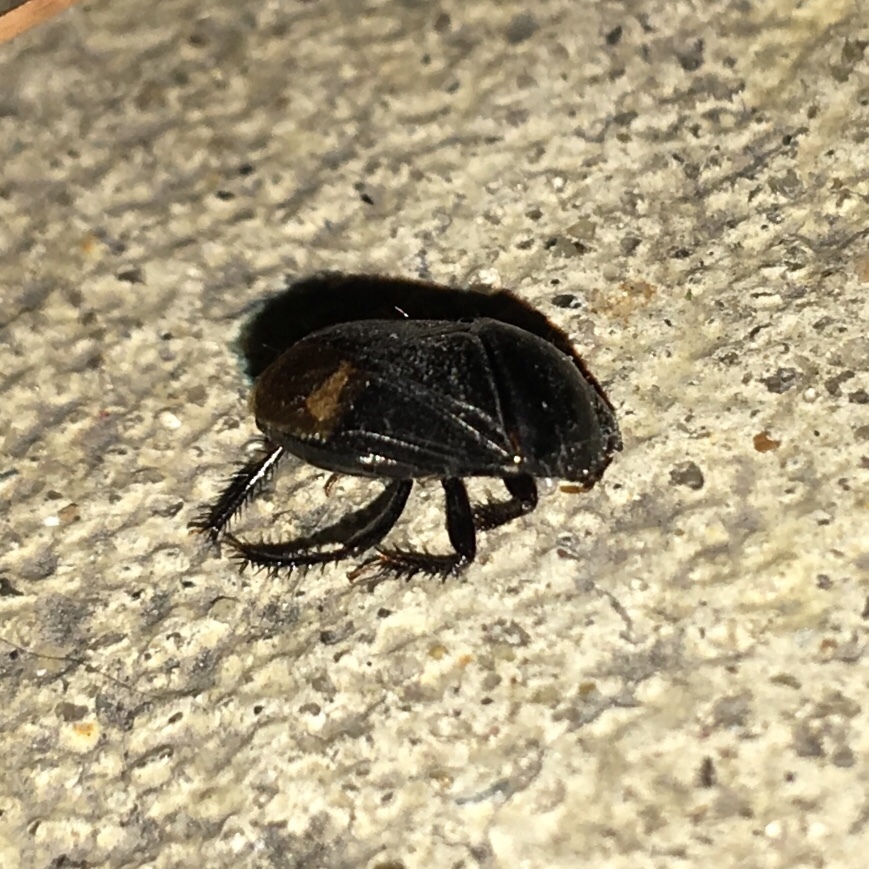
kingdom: Animalia
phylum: Arthropoda
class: Insecta
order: Hemiptera
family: Cydnidae
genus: Pangaeus
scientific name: Pangaeus bilineatus
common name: Burrower bug
